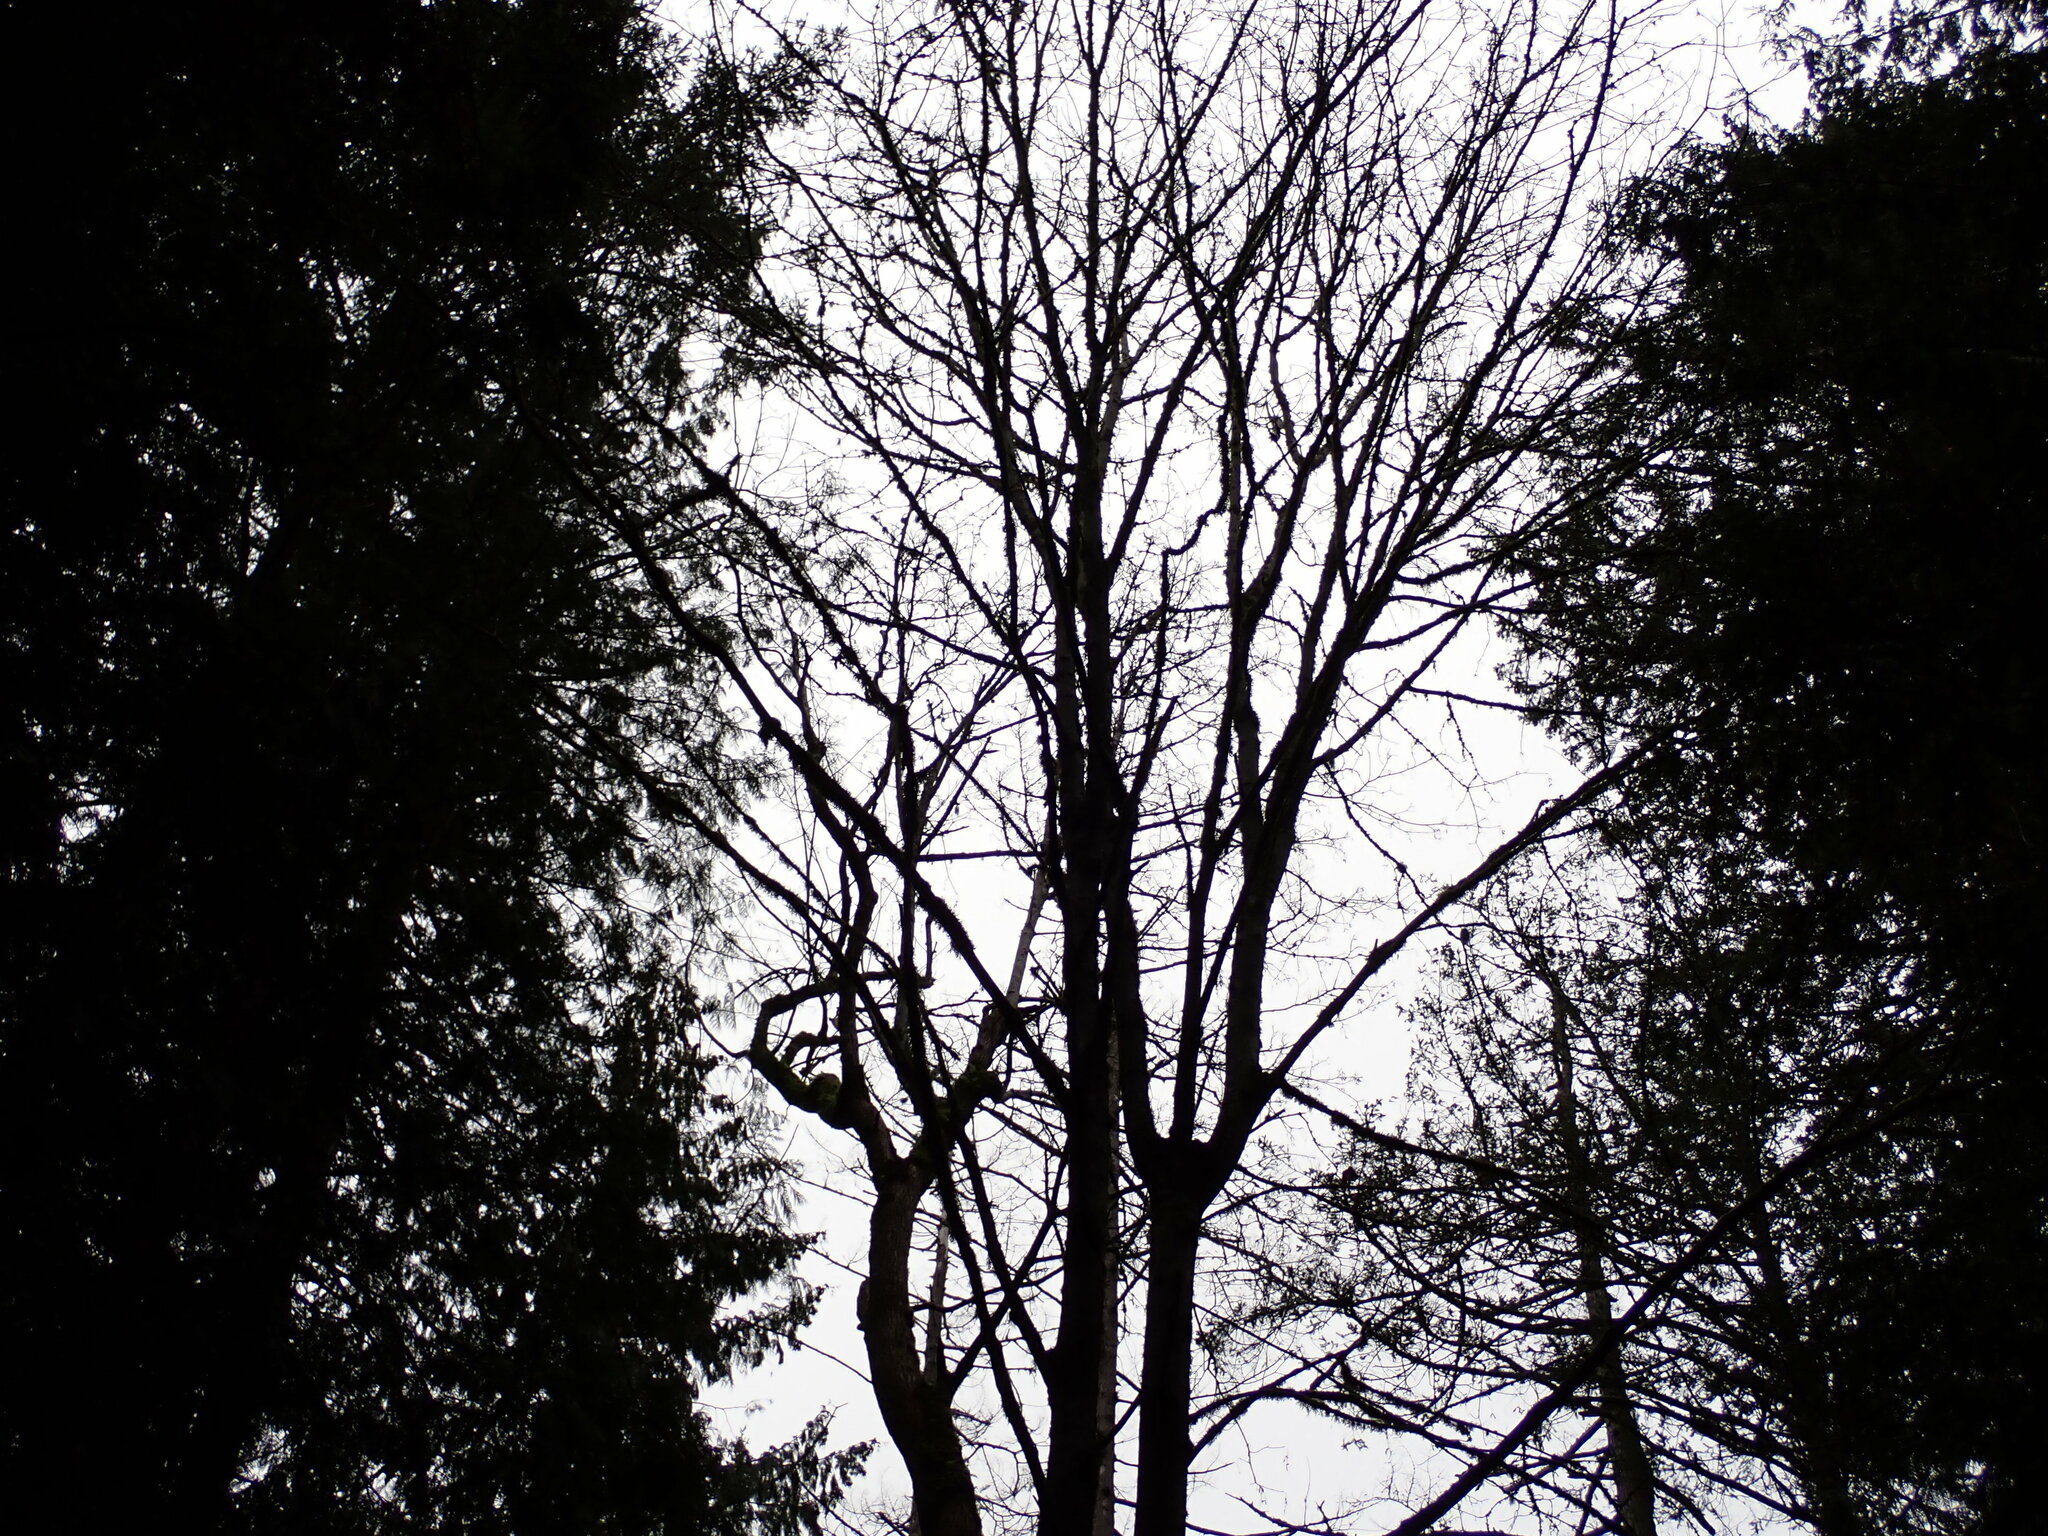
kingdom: Plantae
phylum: Tracheophyta
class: Magnoliopsida
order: Sapindales
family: Sapindaceae
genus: Acer
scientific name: Acer macrophyllum
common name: Oregon maple
